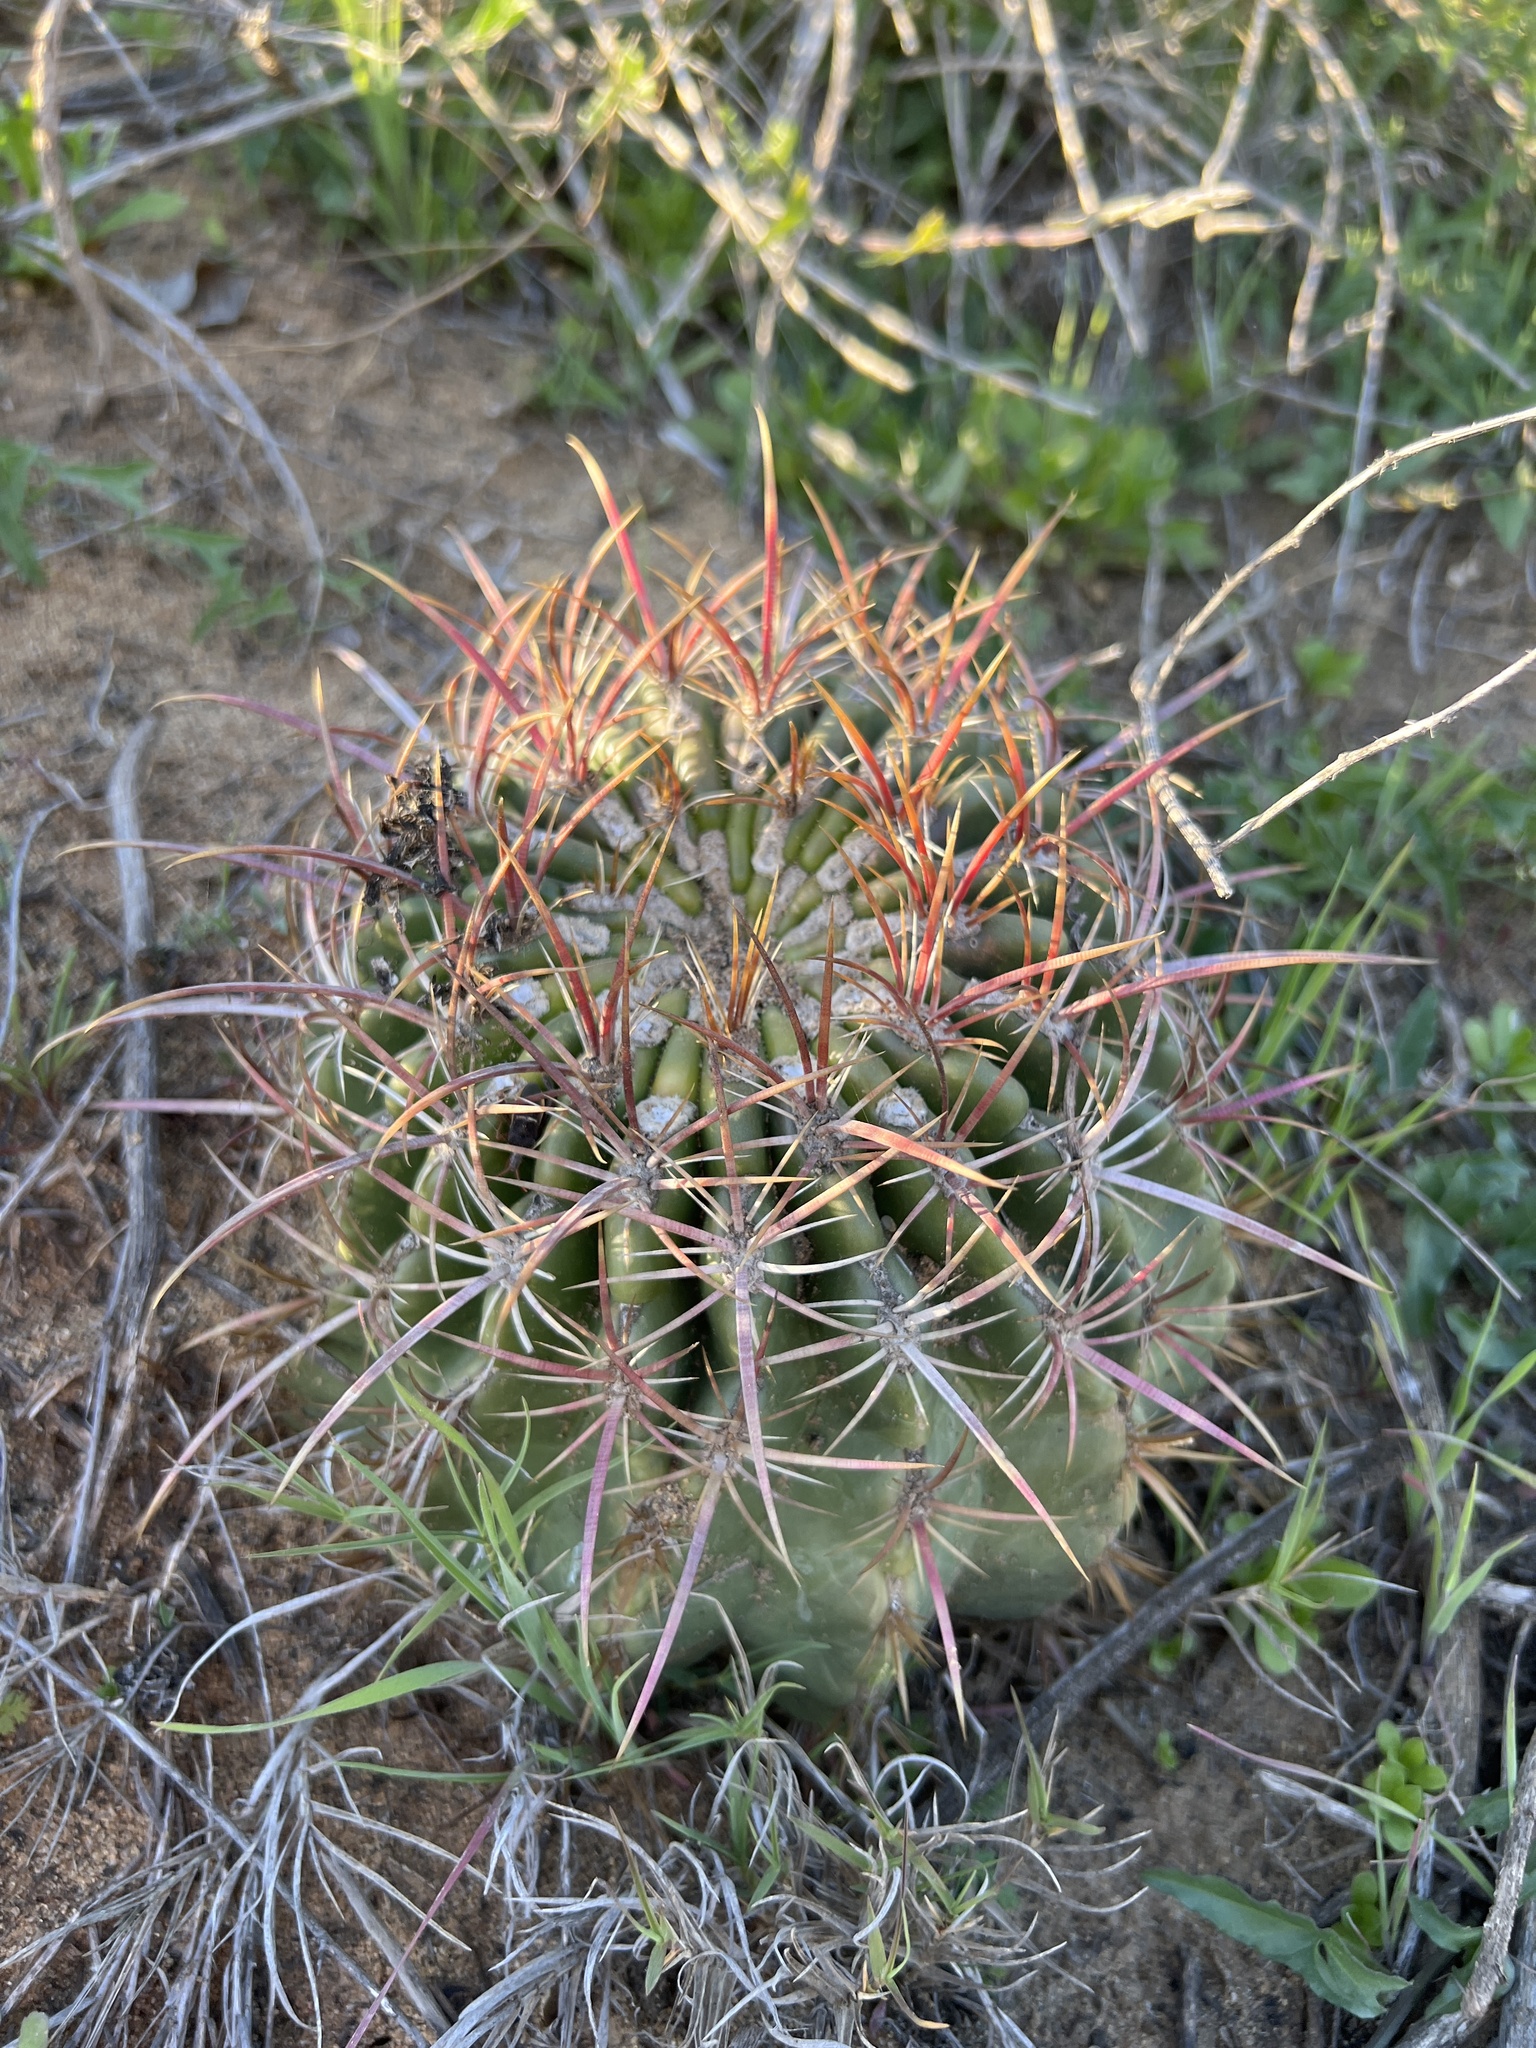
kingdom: Plantae
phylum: Tracheophyta
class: Magnoliopsida
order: Caryophyllales
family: Cactaceae
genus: Ferocactus
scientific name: Ferocactus viridescens
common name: San diego barrel cactus
